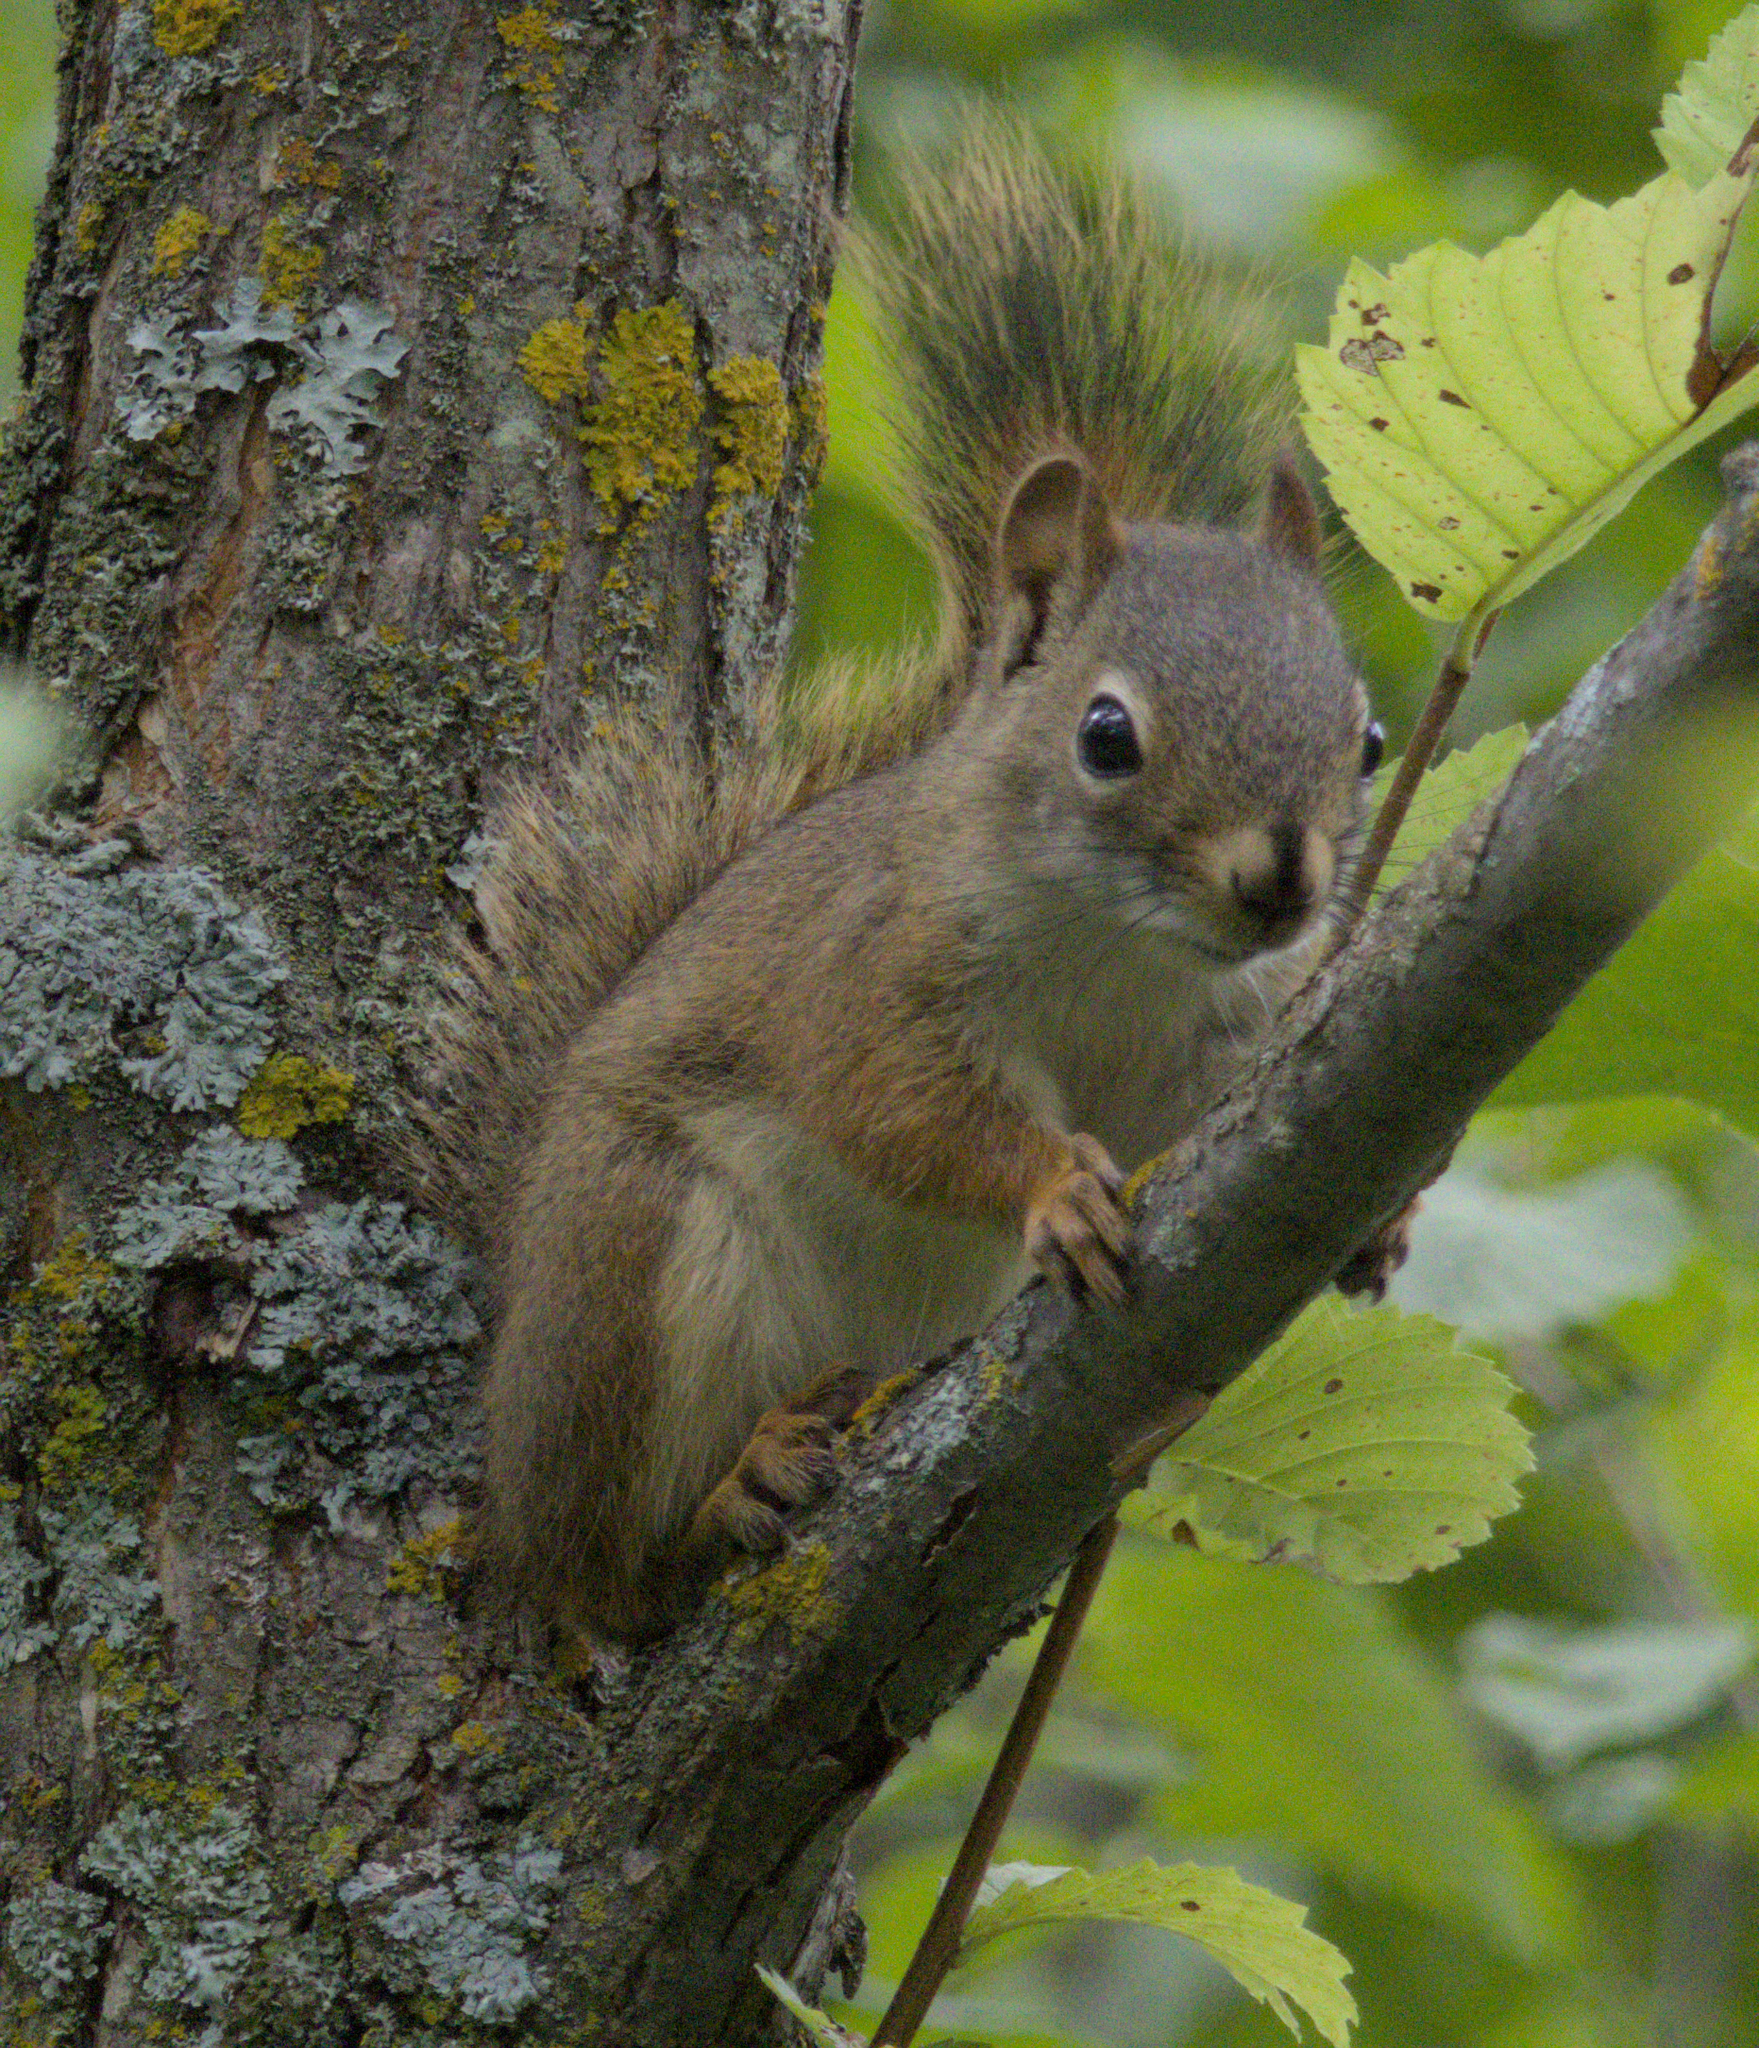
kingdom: Animalia
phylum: Chordata
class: Mammalia
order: Rodentia
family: Sciuridae
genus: Tamiasciurus
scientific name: Tamiasciurus hudsonicus
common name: Red squirrel
